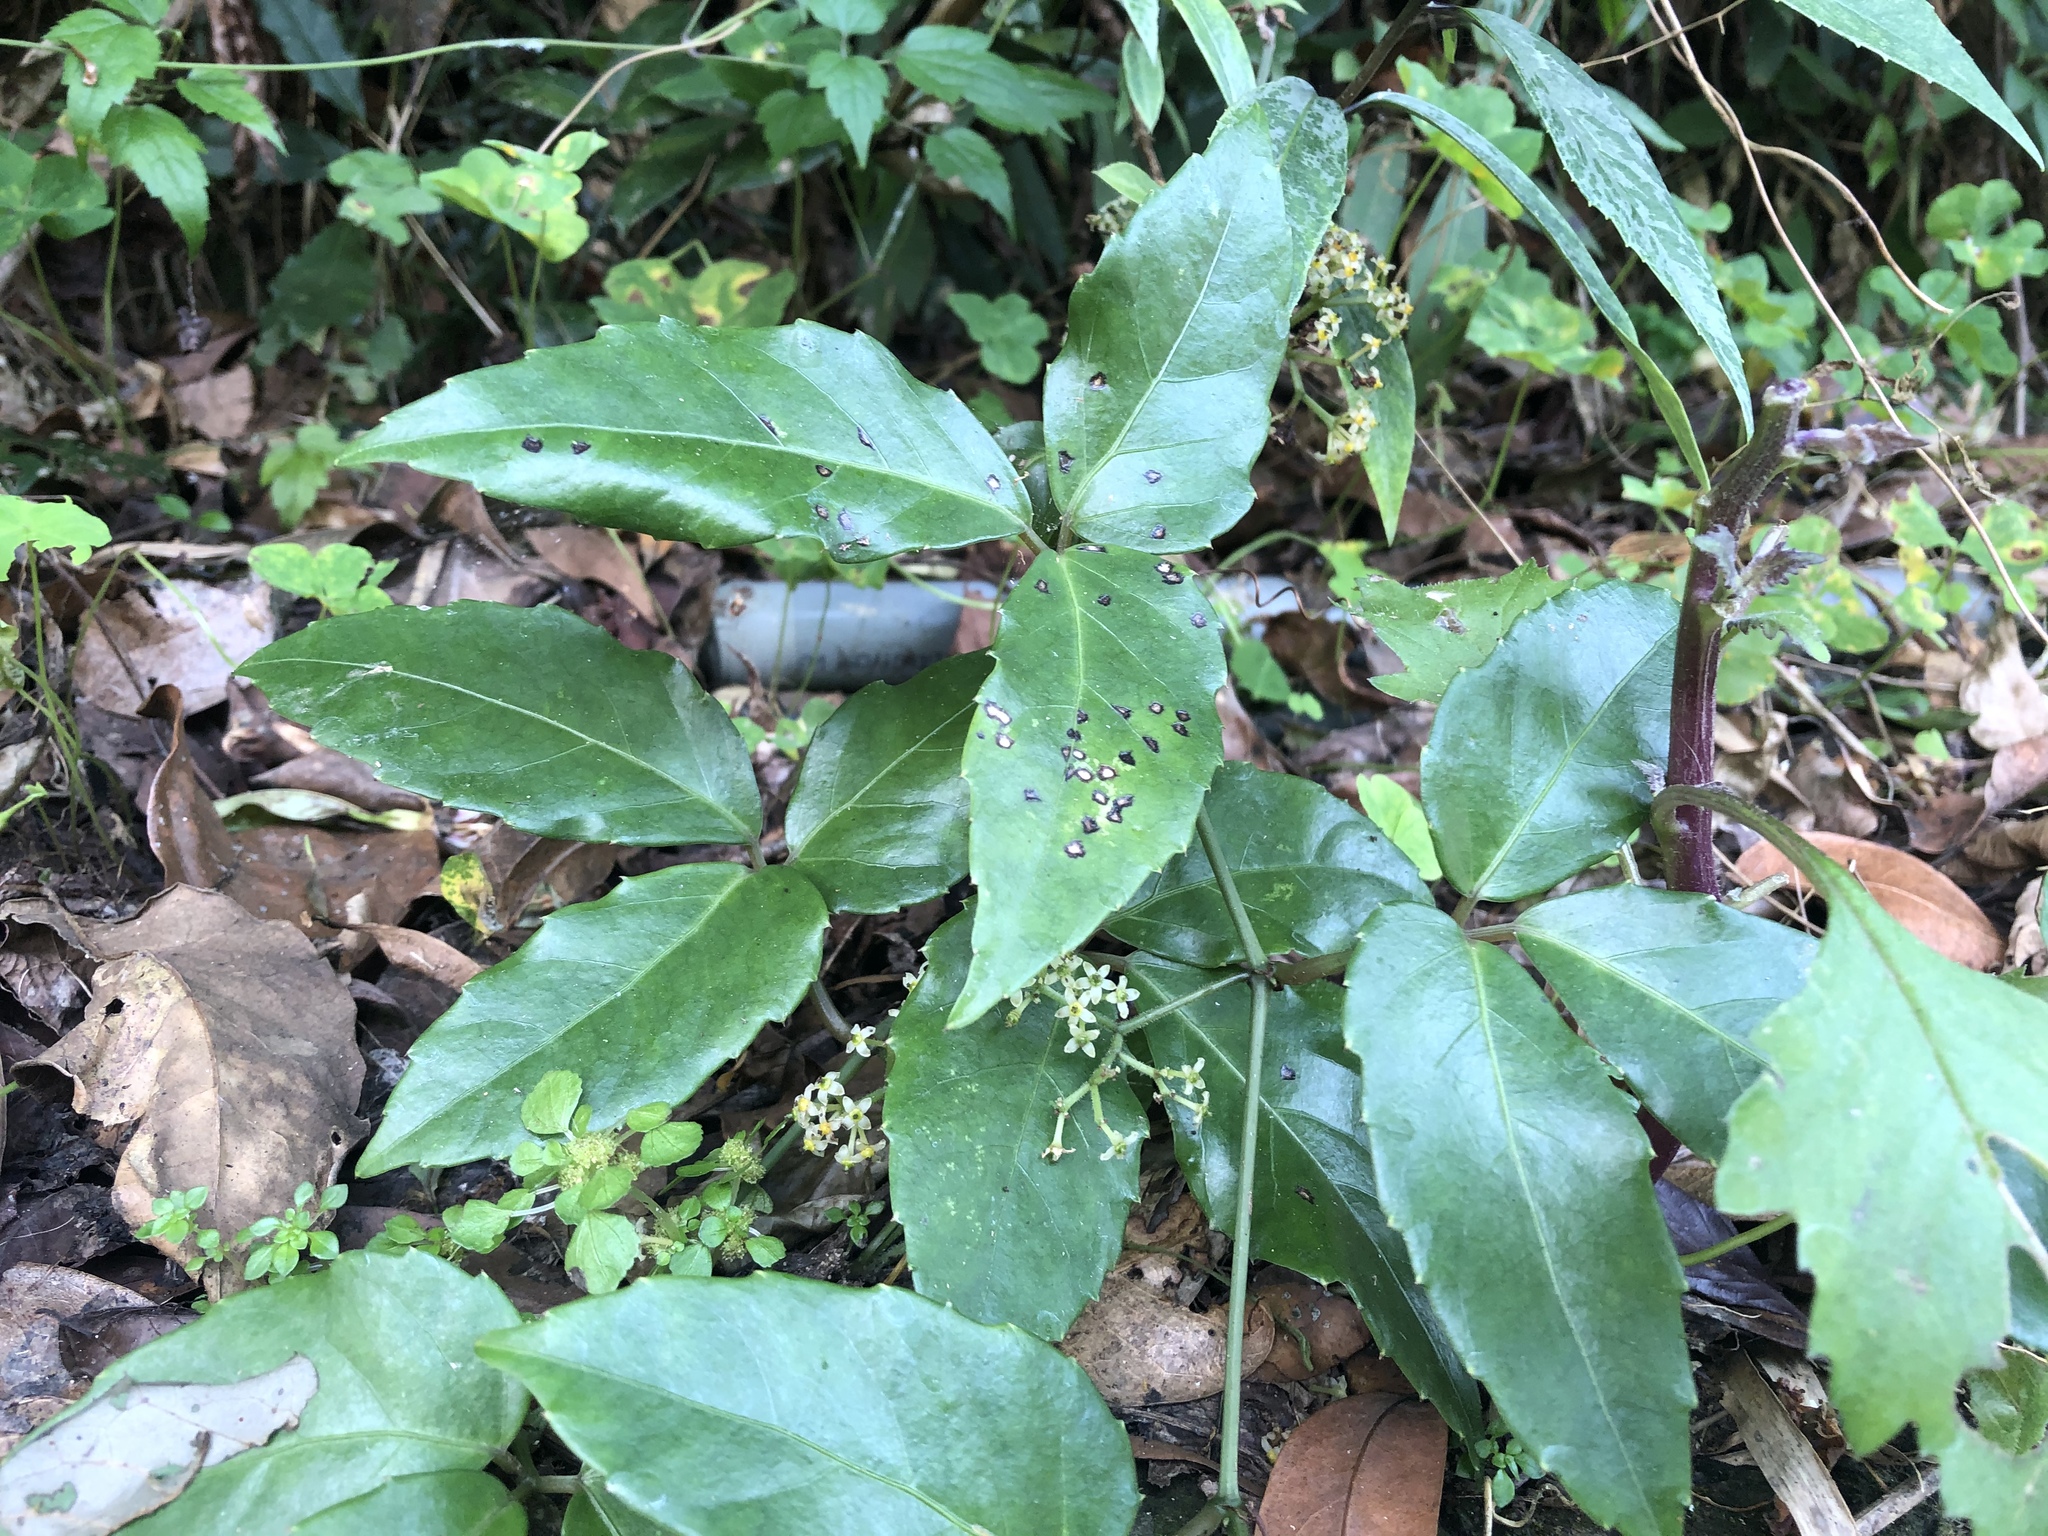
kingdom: Plantae
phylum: Tracheophyta
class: Magnoliopsida
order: Vitales
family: Vitaceae
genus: Tetrastigma
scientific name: Tetrastigma hemsleyanum
